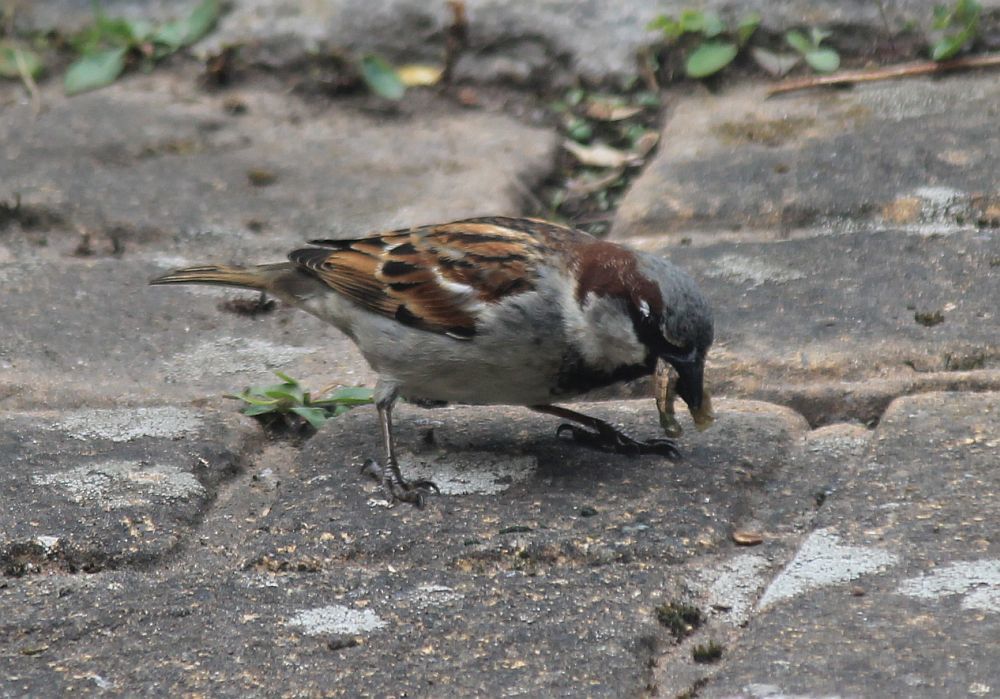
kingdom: Animalia
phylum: Chordata
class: Aves
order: Passeriformes
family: Passeridae
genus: Passer
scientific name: Passer domesticus
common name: House sparrow
